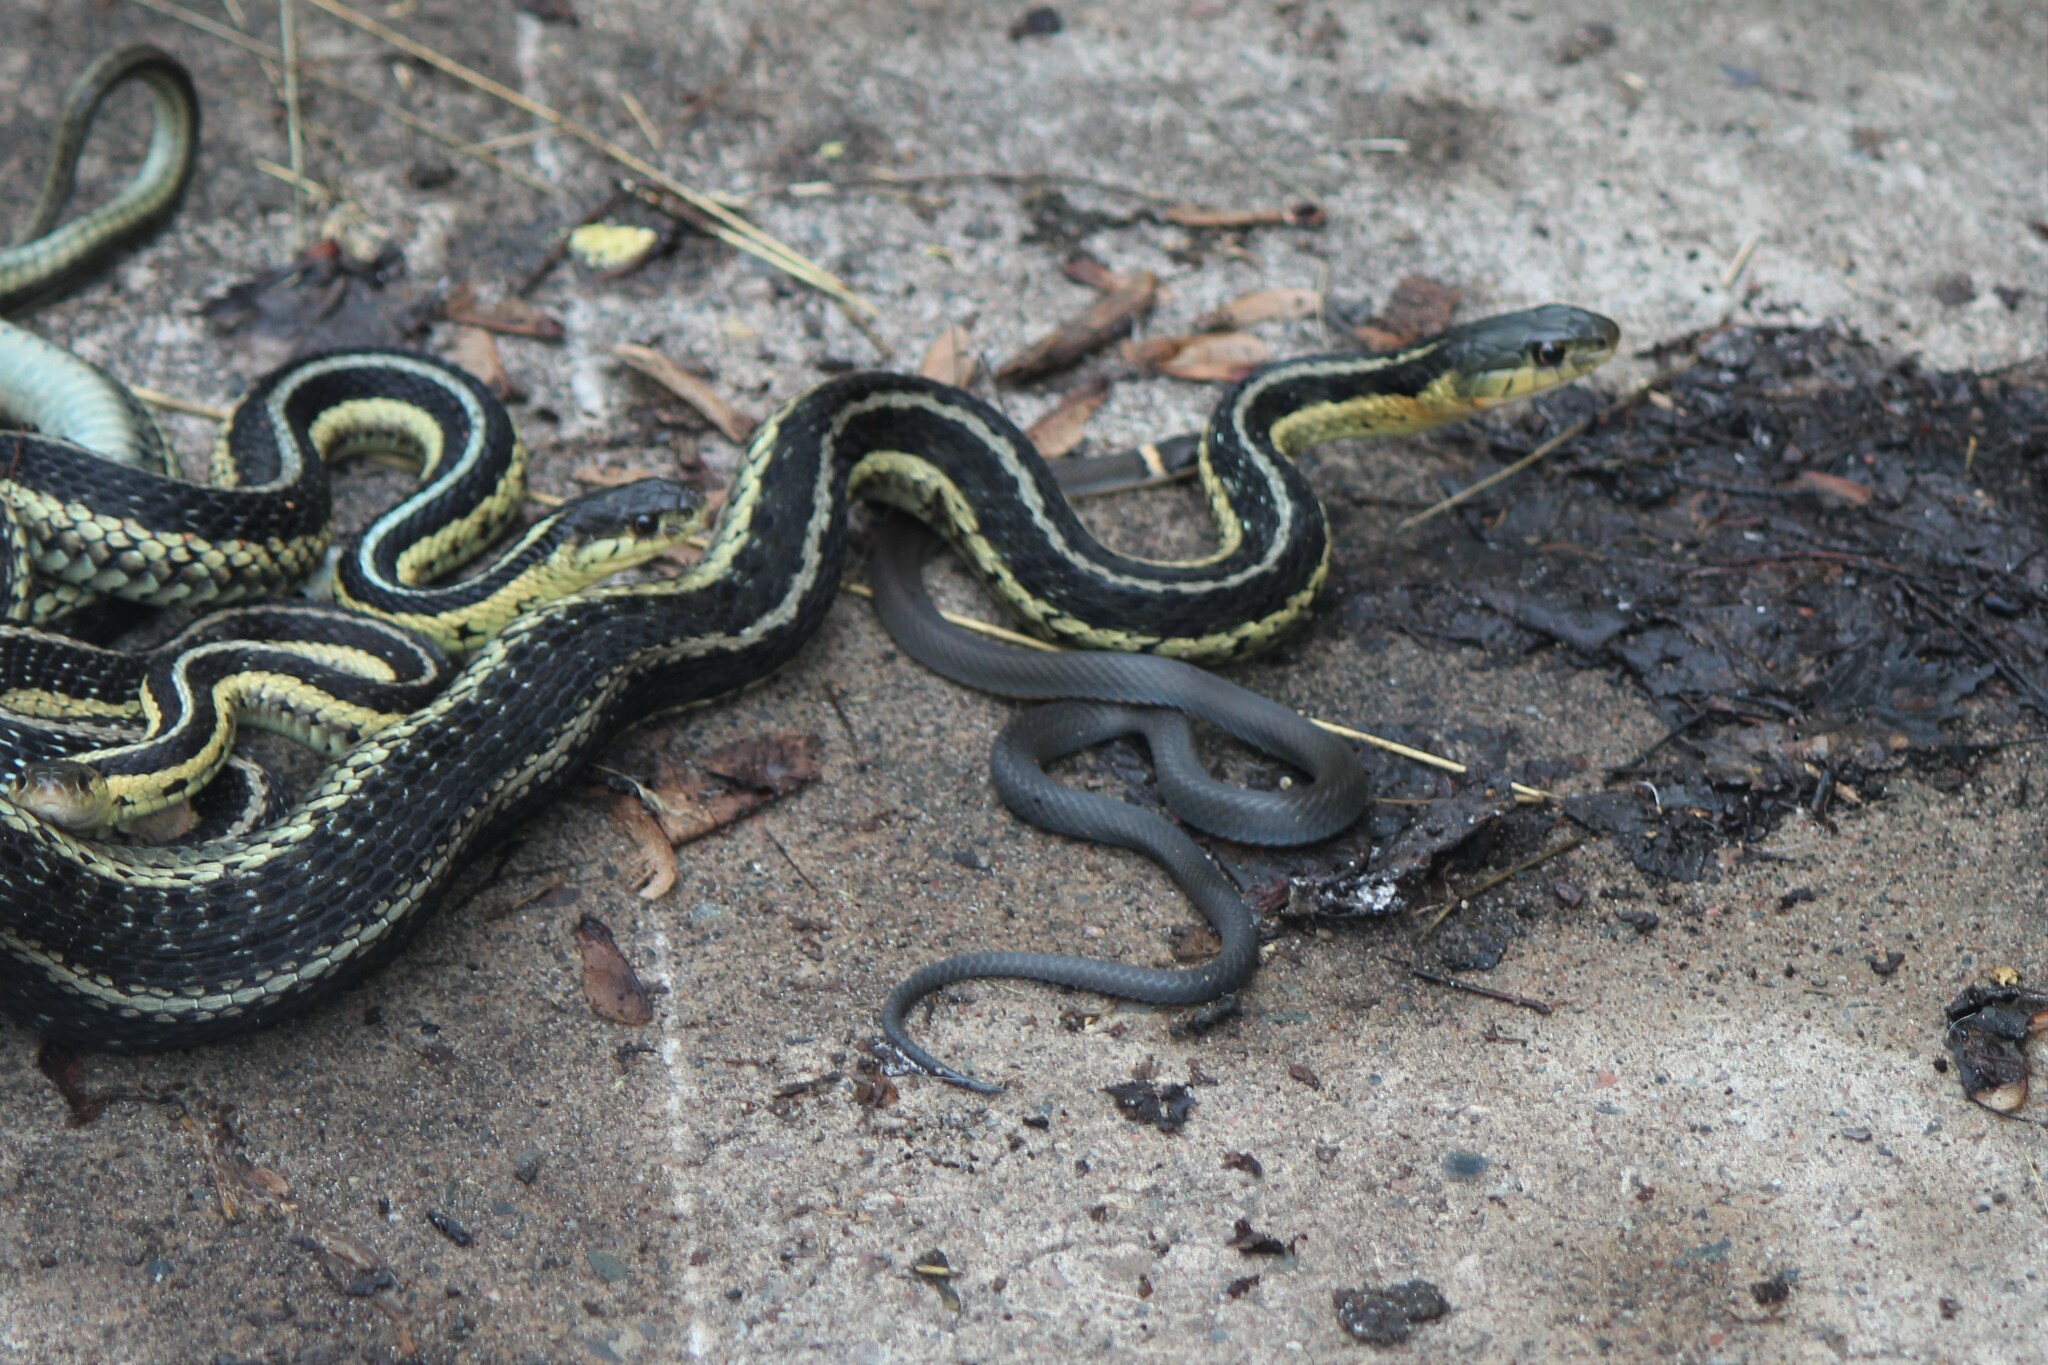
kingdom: Animalia
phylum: Chordata
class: Squamata
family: Colubridae
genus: Thamnophis
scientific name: Thamnophis sirtalis
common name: Common garter snake
